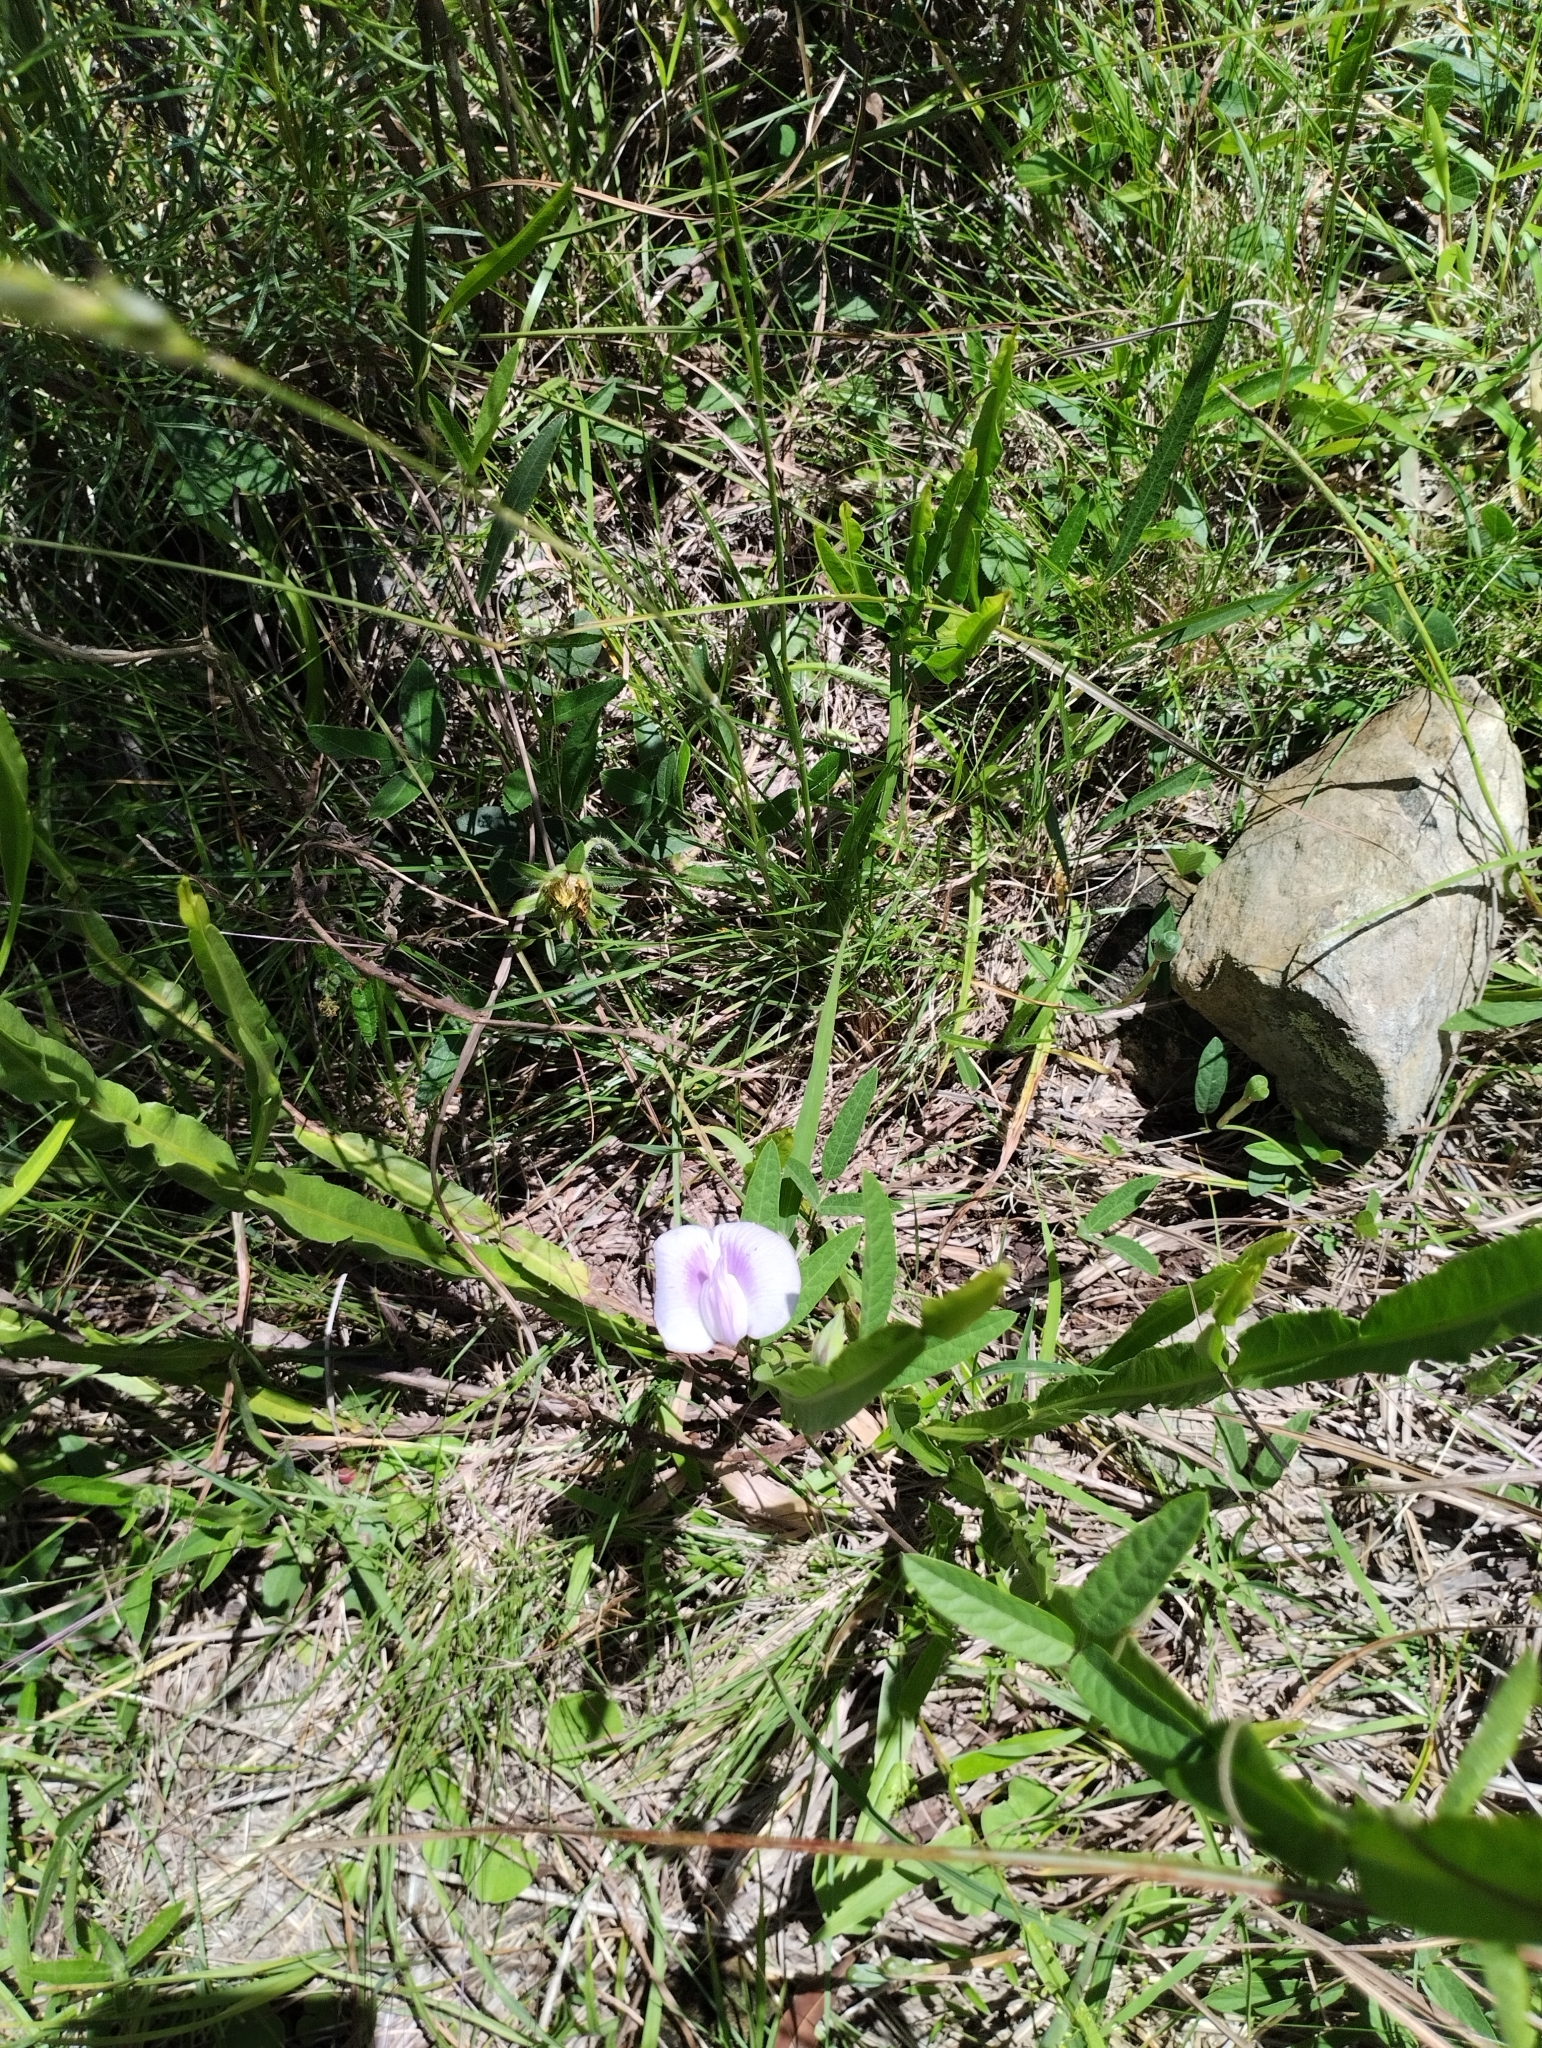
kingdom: Plantae
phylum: Tracheophyta
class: Magnoliopsida
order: Fabales
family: Fabaceae
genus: Centrosema
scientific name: Centrosema virginianum
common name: Butterfly-pea
